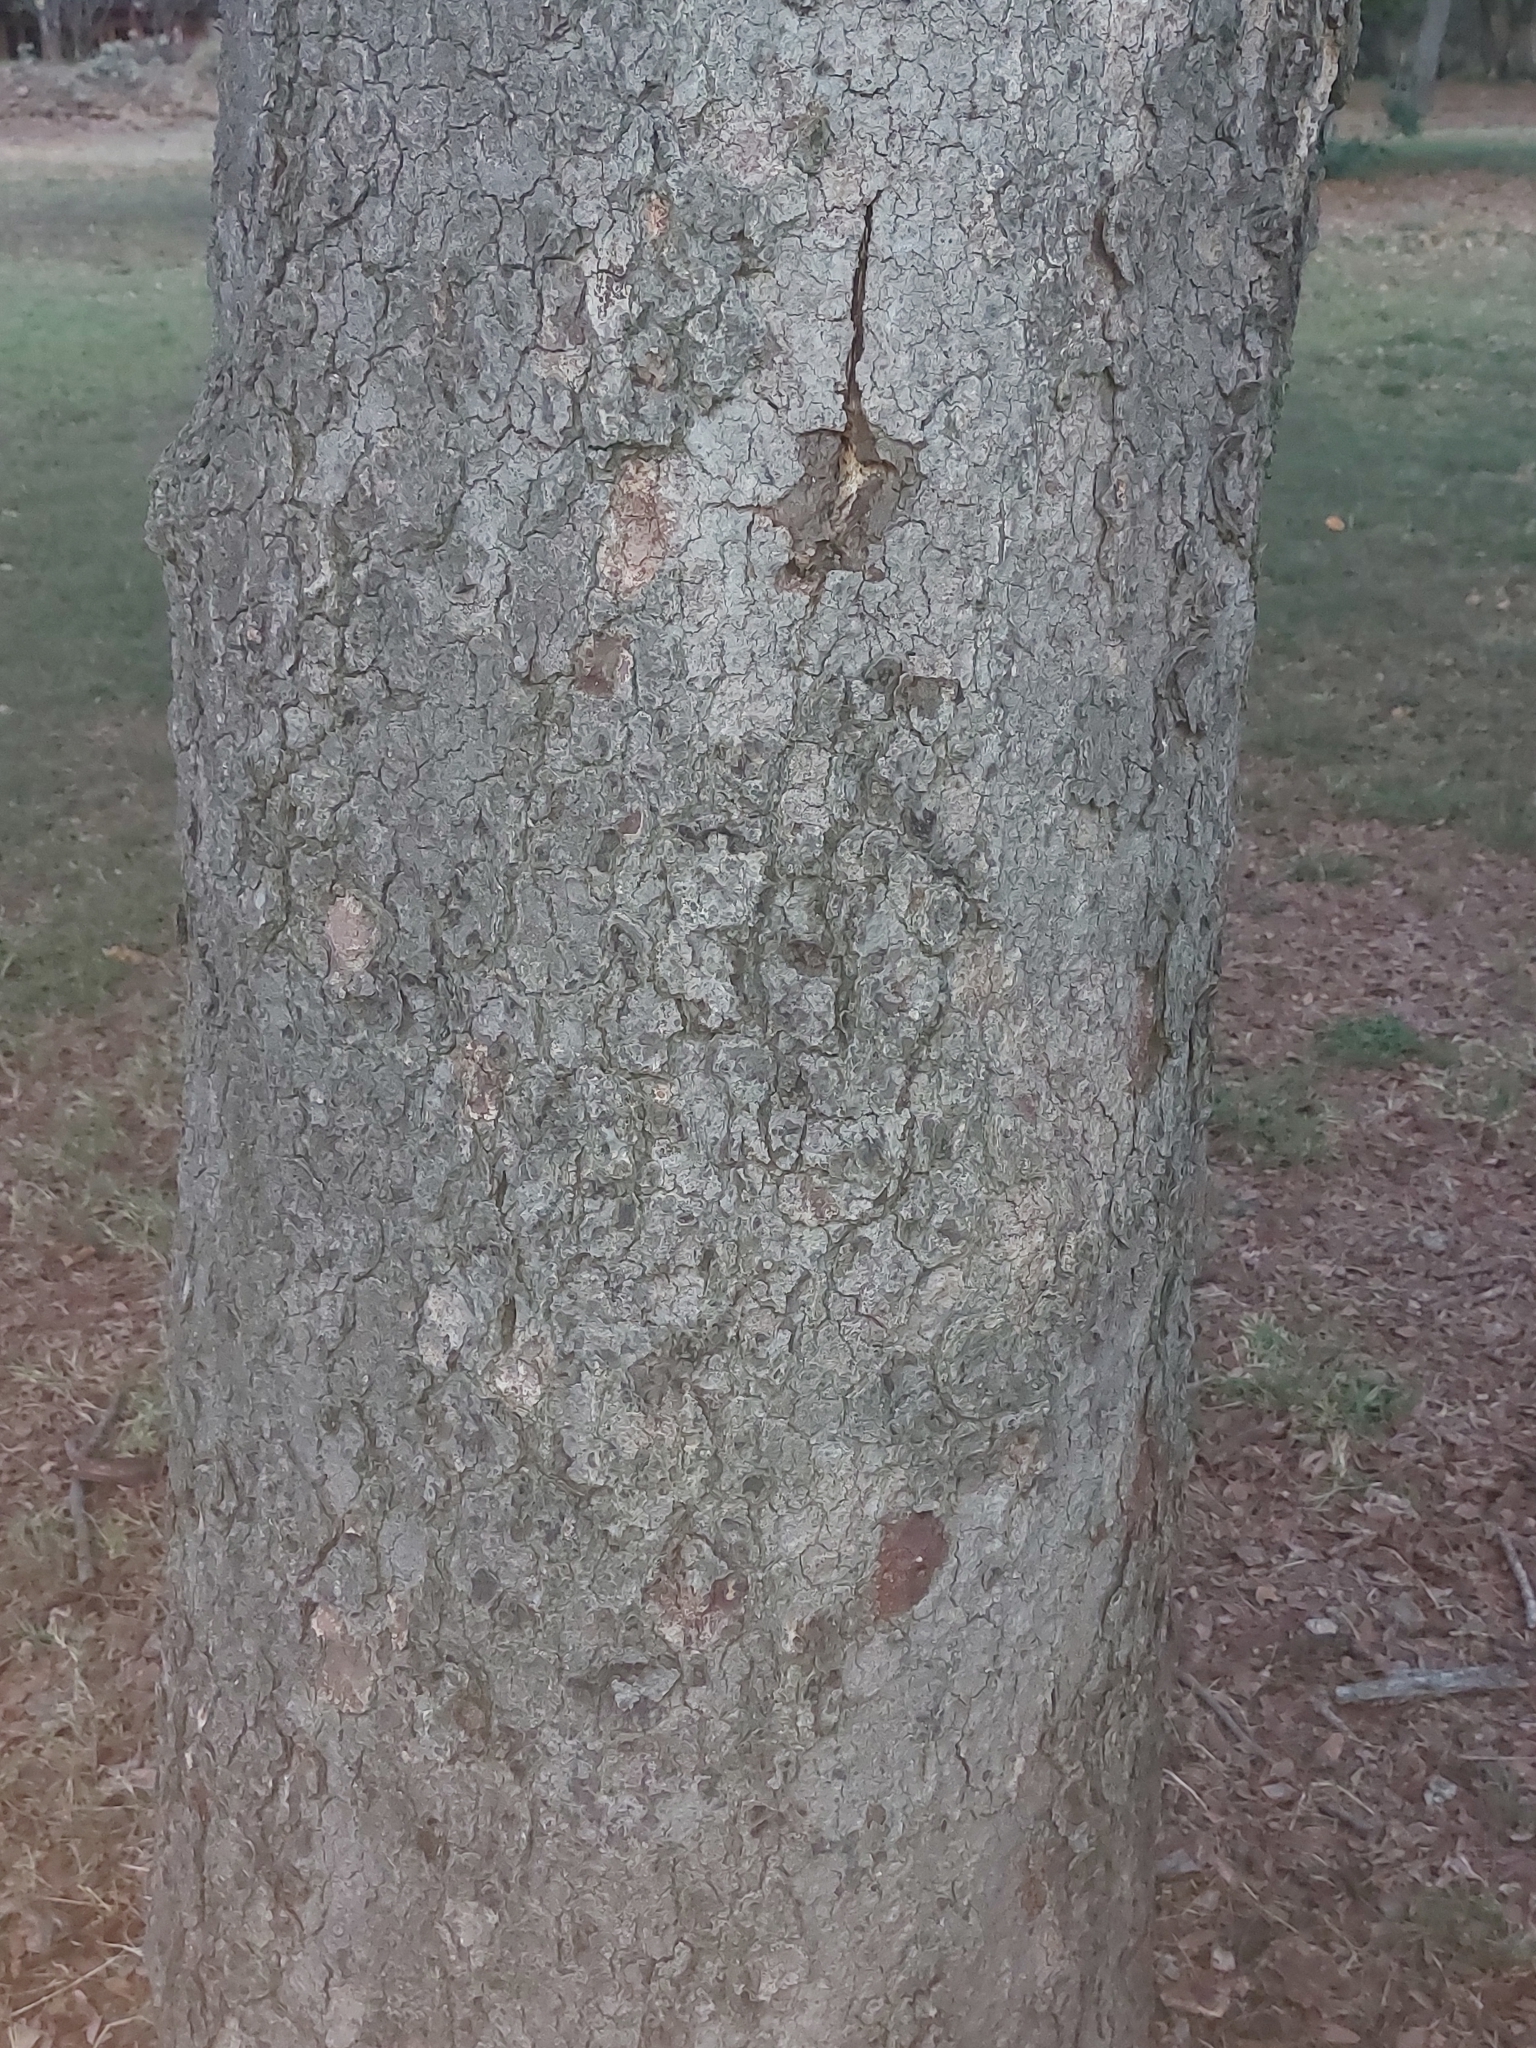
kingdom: Plantae
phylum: Tracheophyta
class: Magnoliopsida
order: Fabales
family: Fabaceae
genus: Burkea
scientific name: Burkea africana
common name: Mkalati tree
